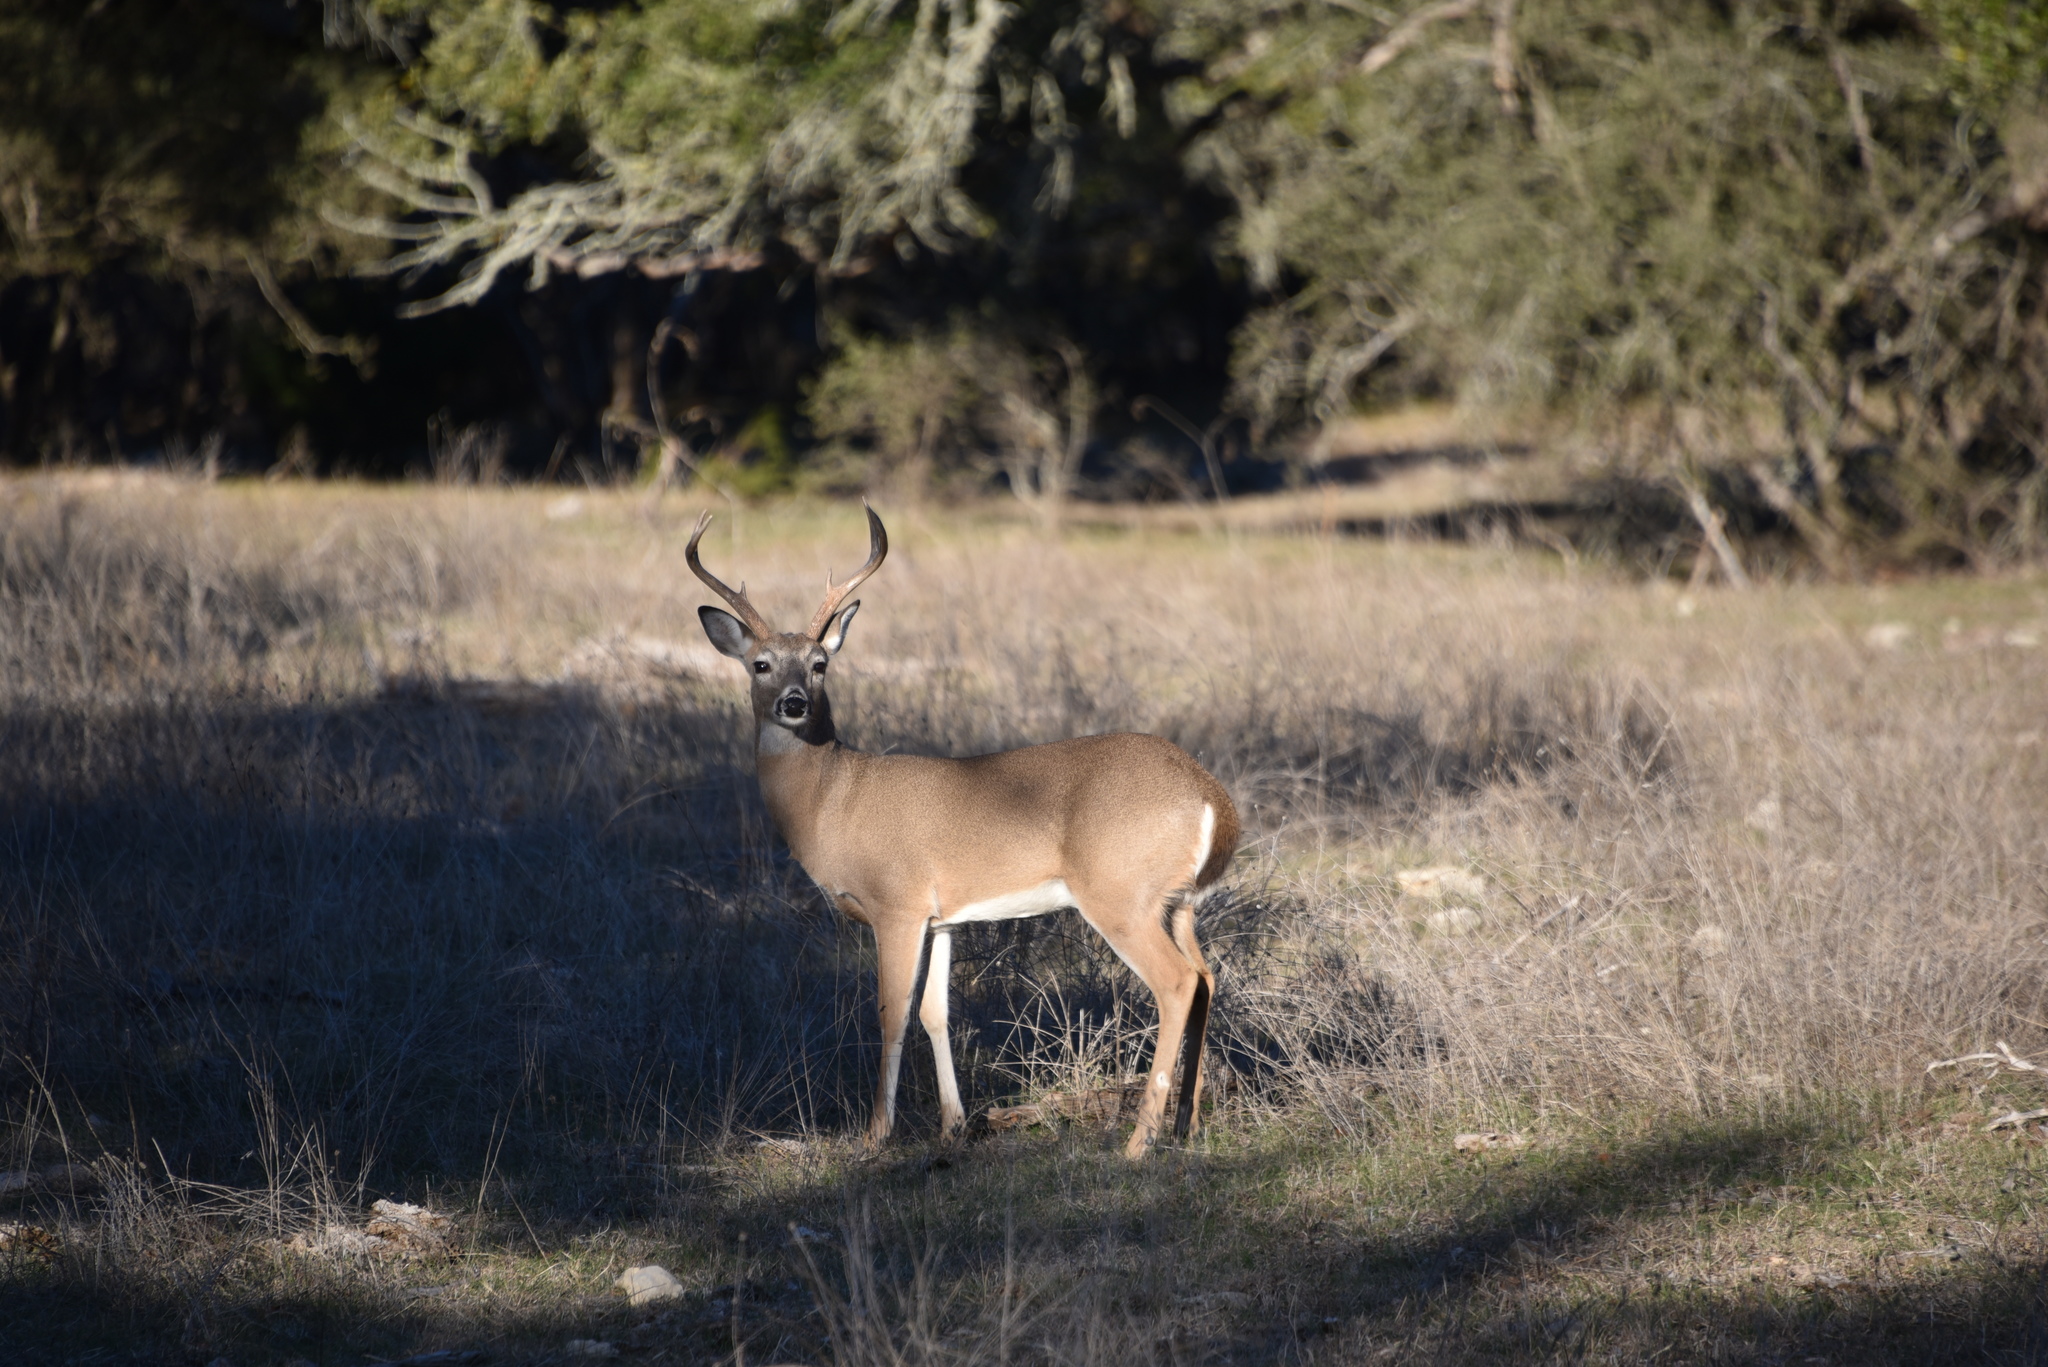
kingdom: Animalia
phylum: Chordata
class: Mammalia
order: Artiodactyla
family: Cervidae
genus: Odocoileus
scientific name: Odocoileus virginianus
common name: White-tailed deer
